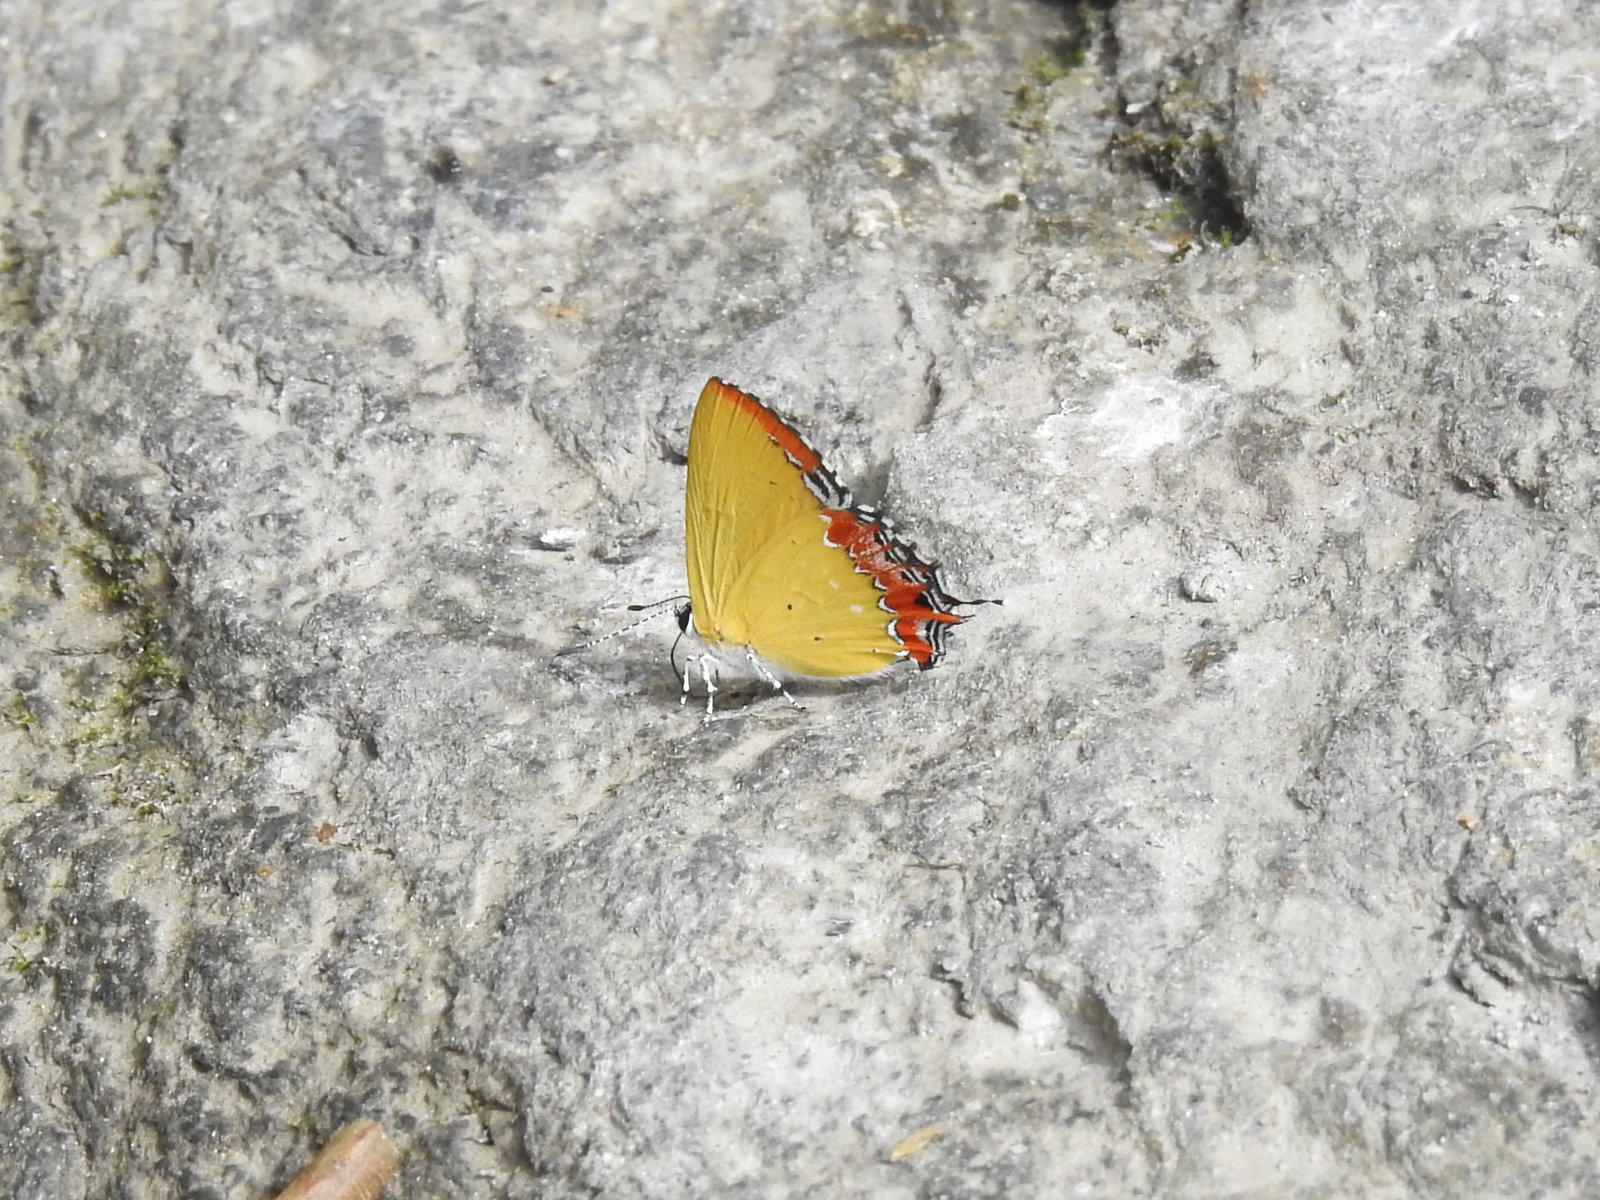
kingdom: Animalia
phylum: Arthropoda
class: Insecta
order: Lepidoptera
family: Lycaenidae
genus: Heliophorus
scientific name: Heliophorus epicles
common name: Purple sapphire
